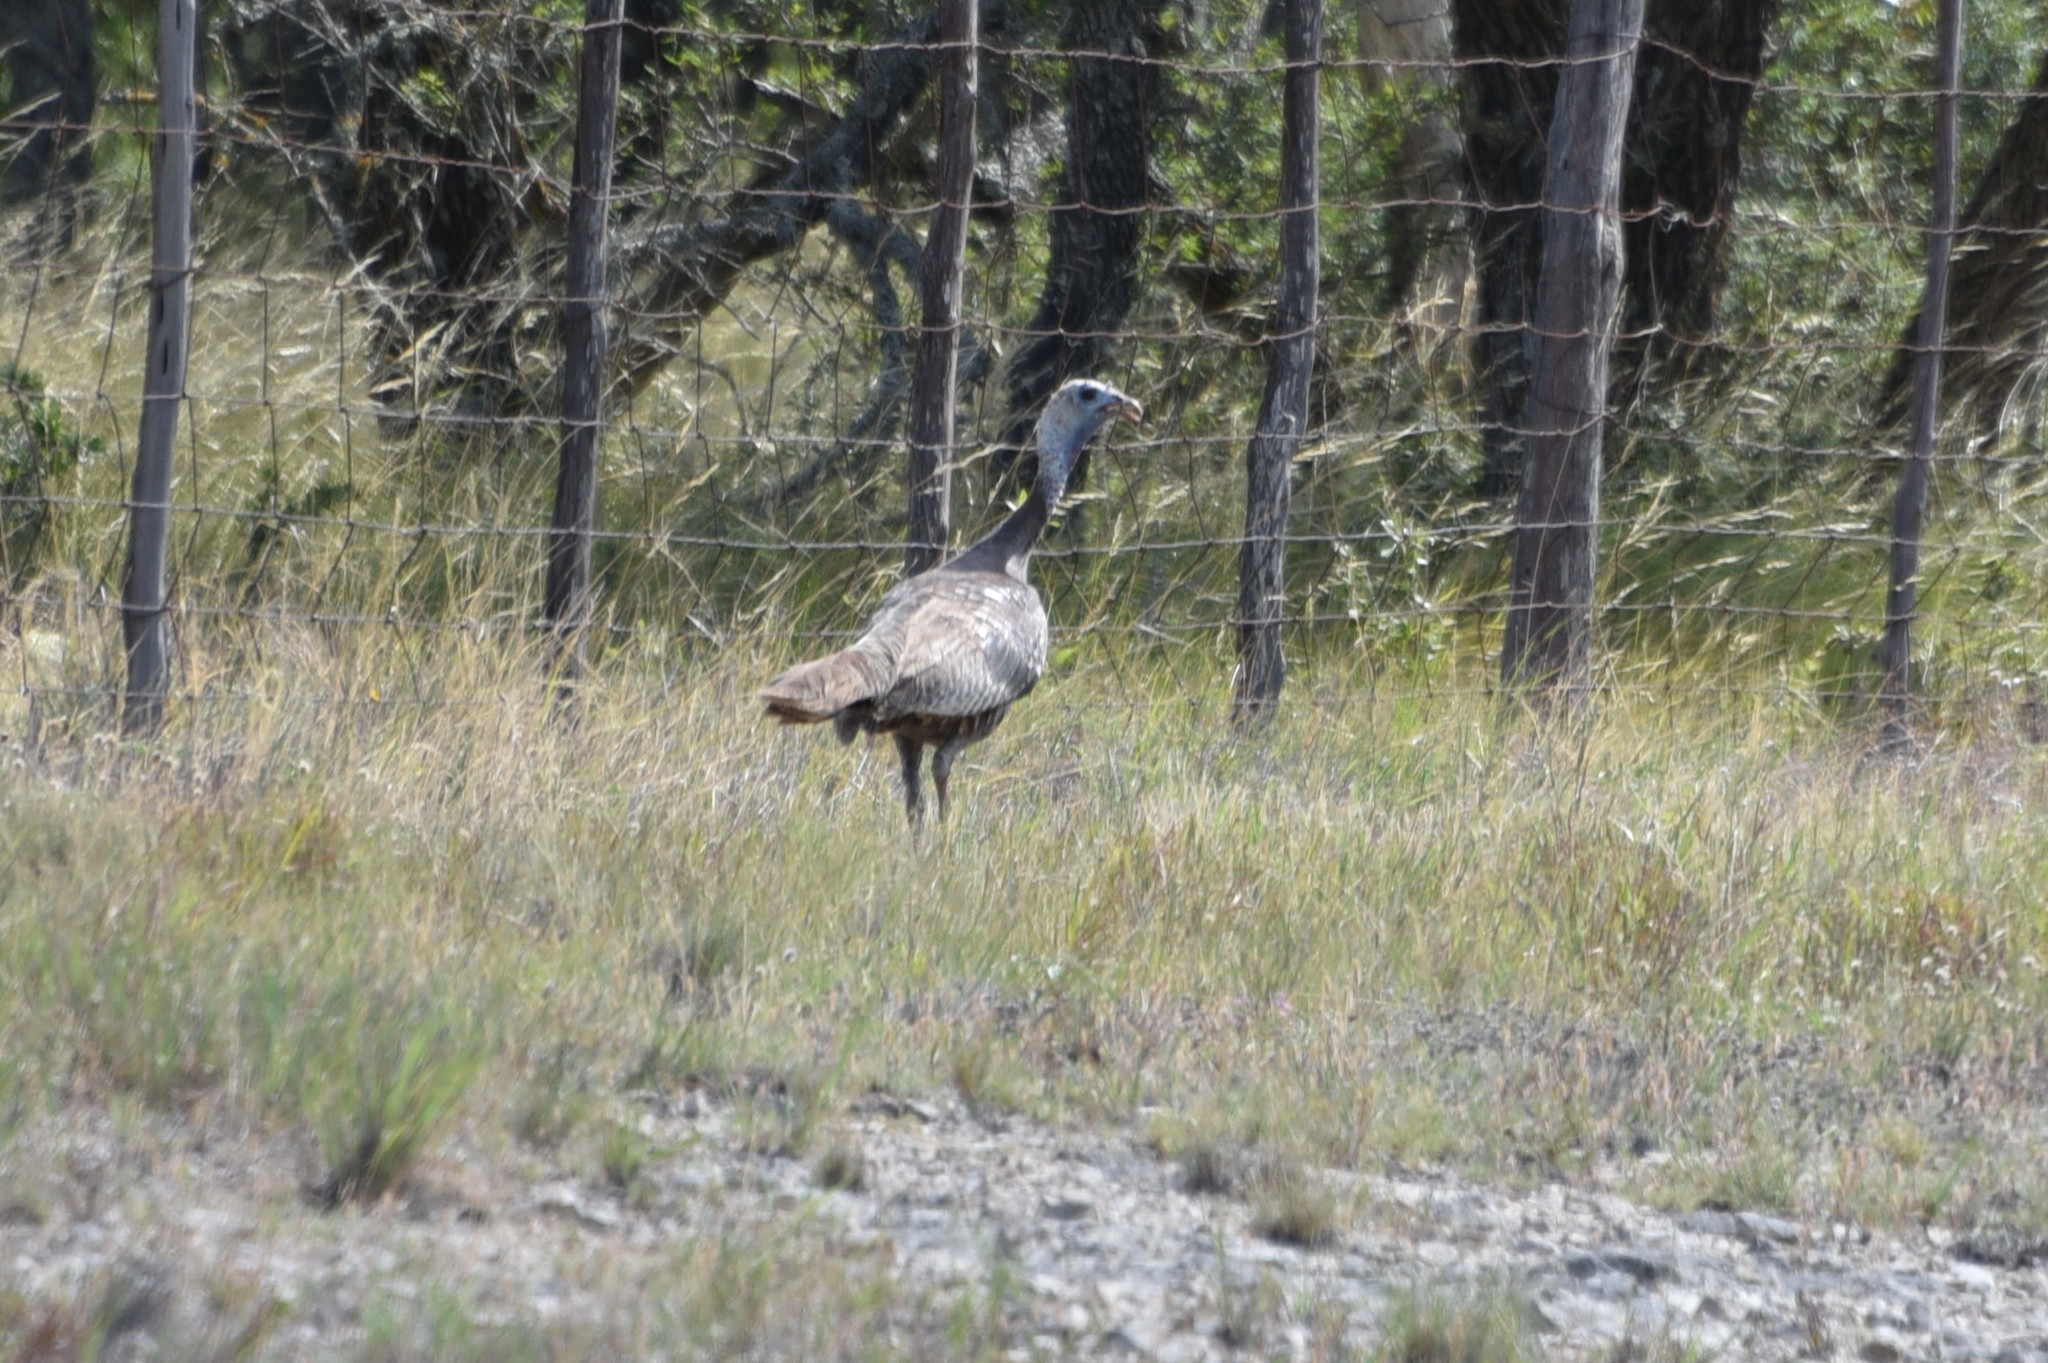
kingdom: Animalia
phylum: Chordata
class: Aves
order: Galliformes
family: Phasianidae
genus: Meleagris
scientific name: Meleagris gallopavo
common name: Wild turkey
